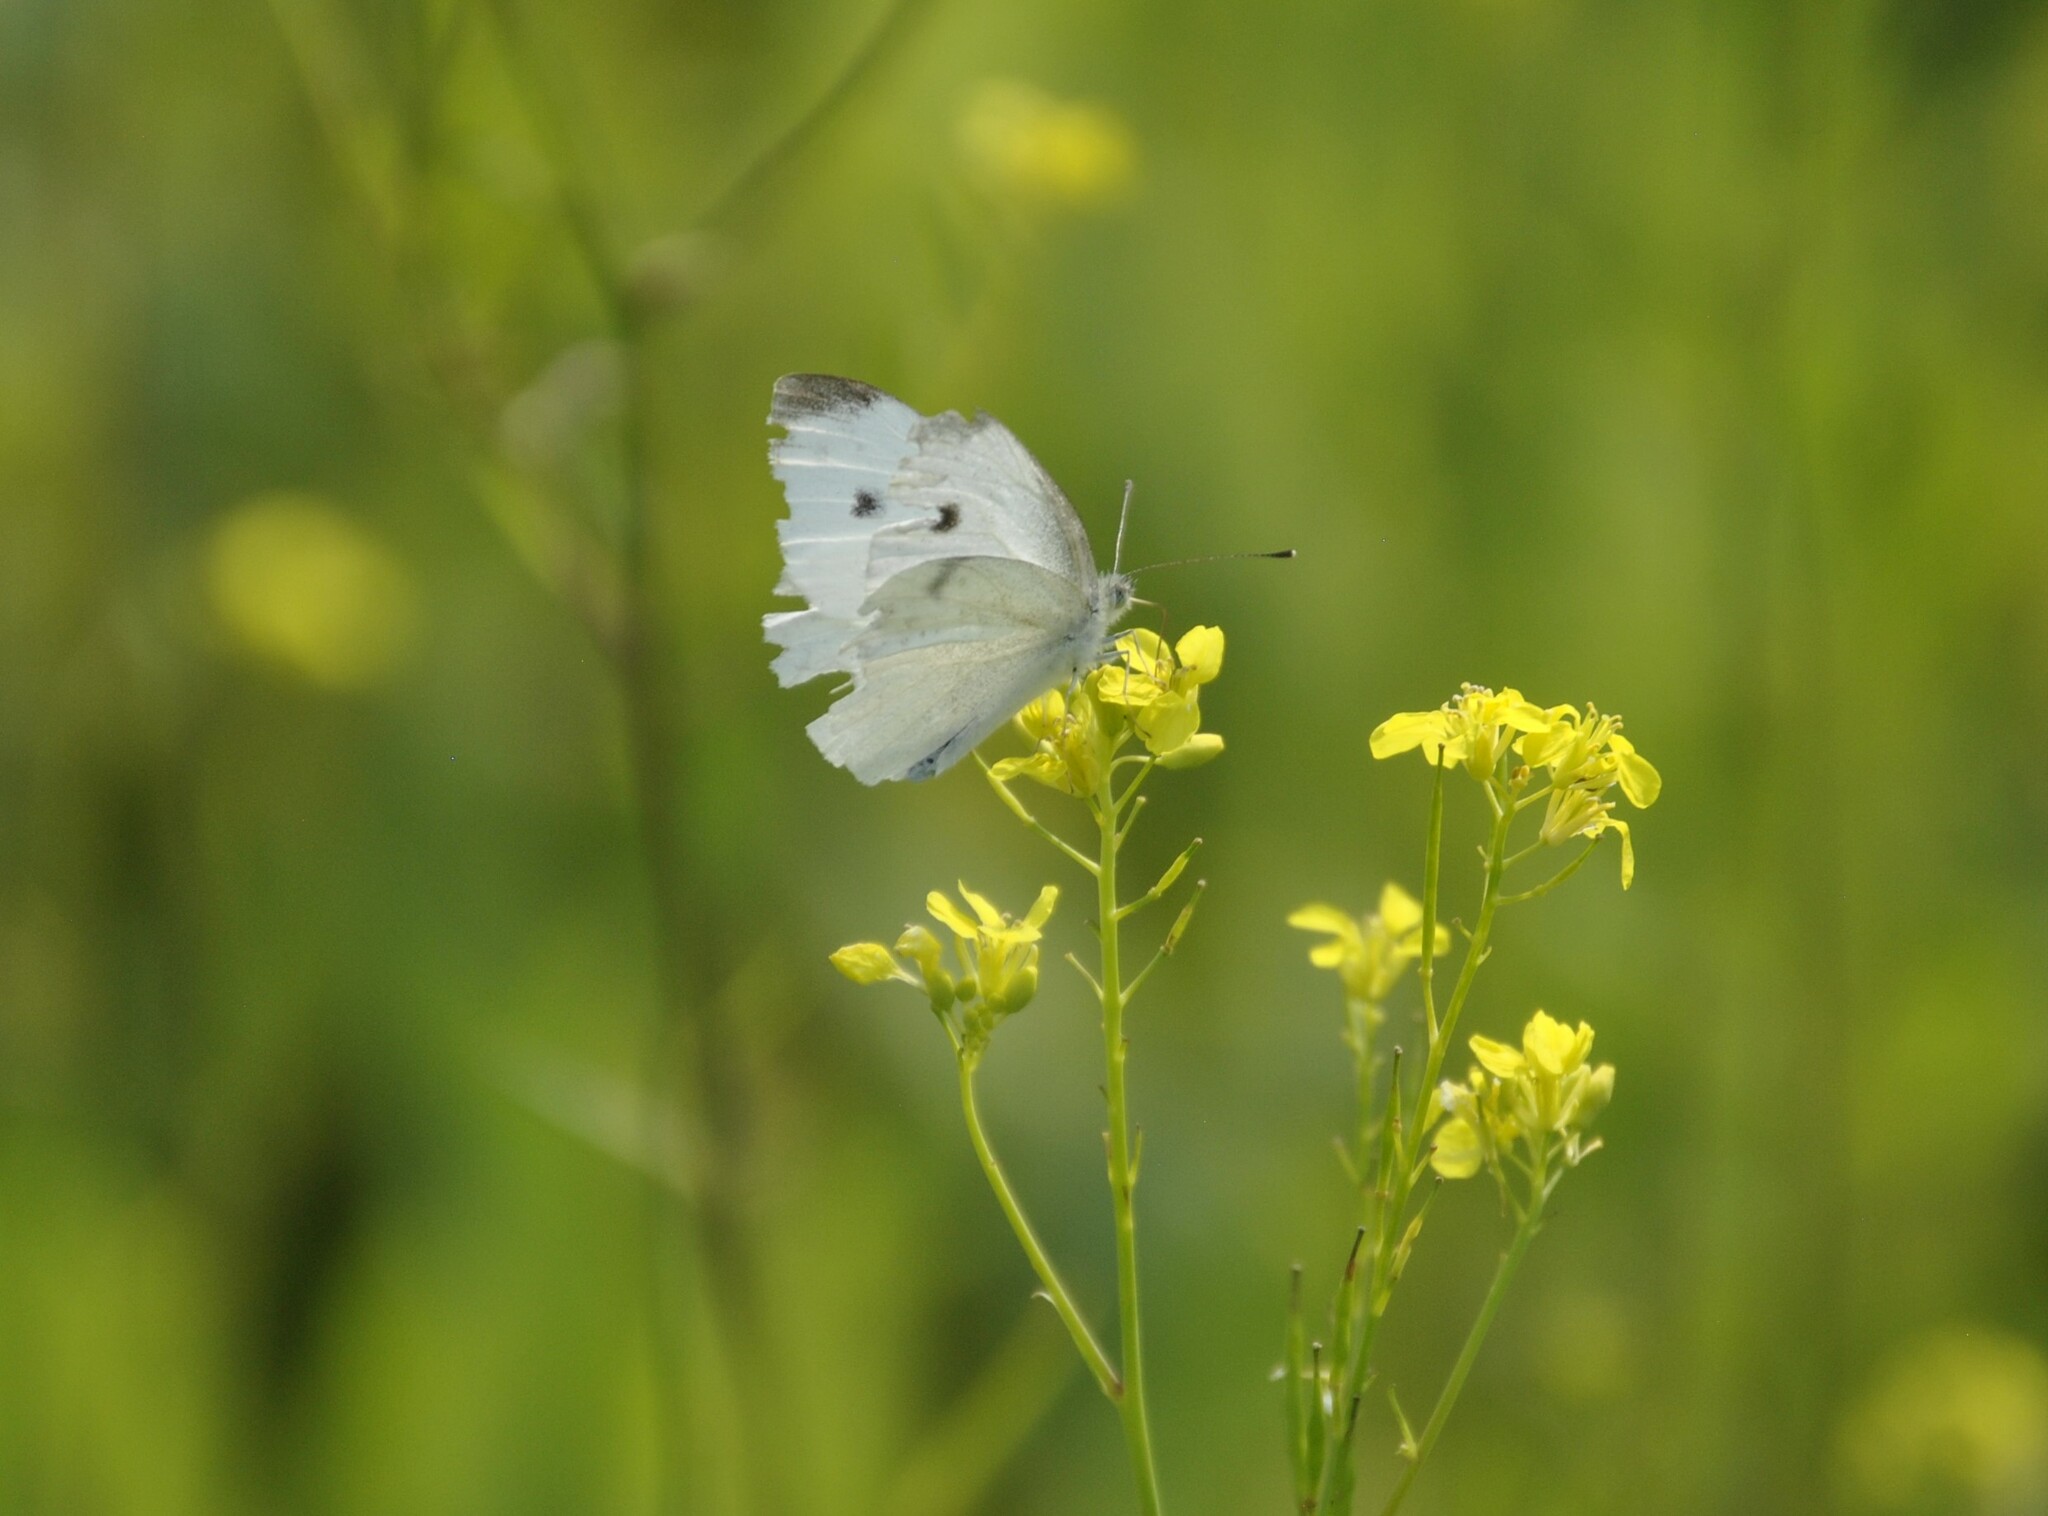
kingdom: Animalia
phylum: Arthropoda
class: Insecta
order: Lepidoptera
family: Pieridae
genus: Pieris
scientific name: Pieris rapae
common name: Small white
